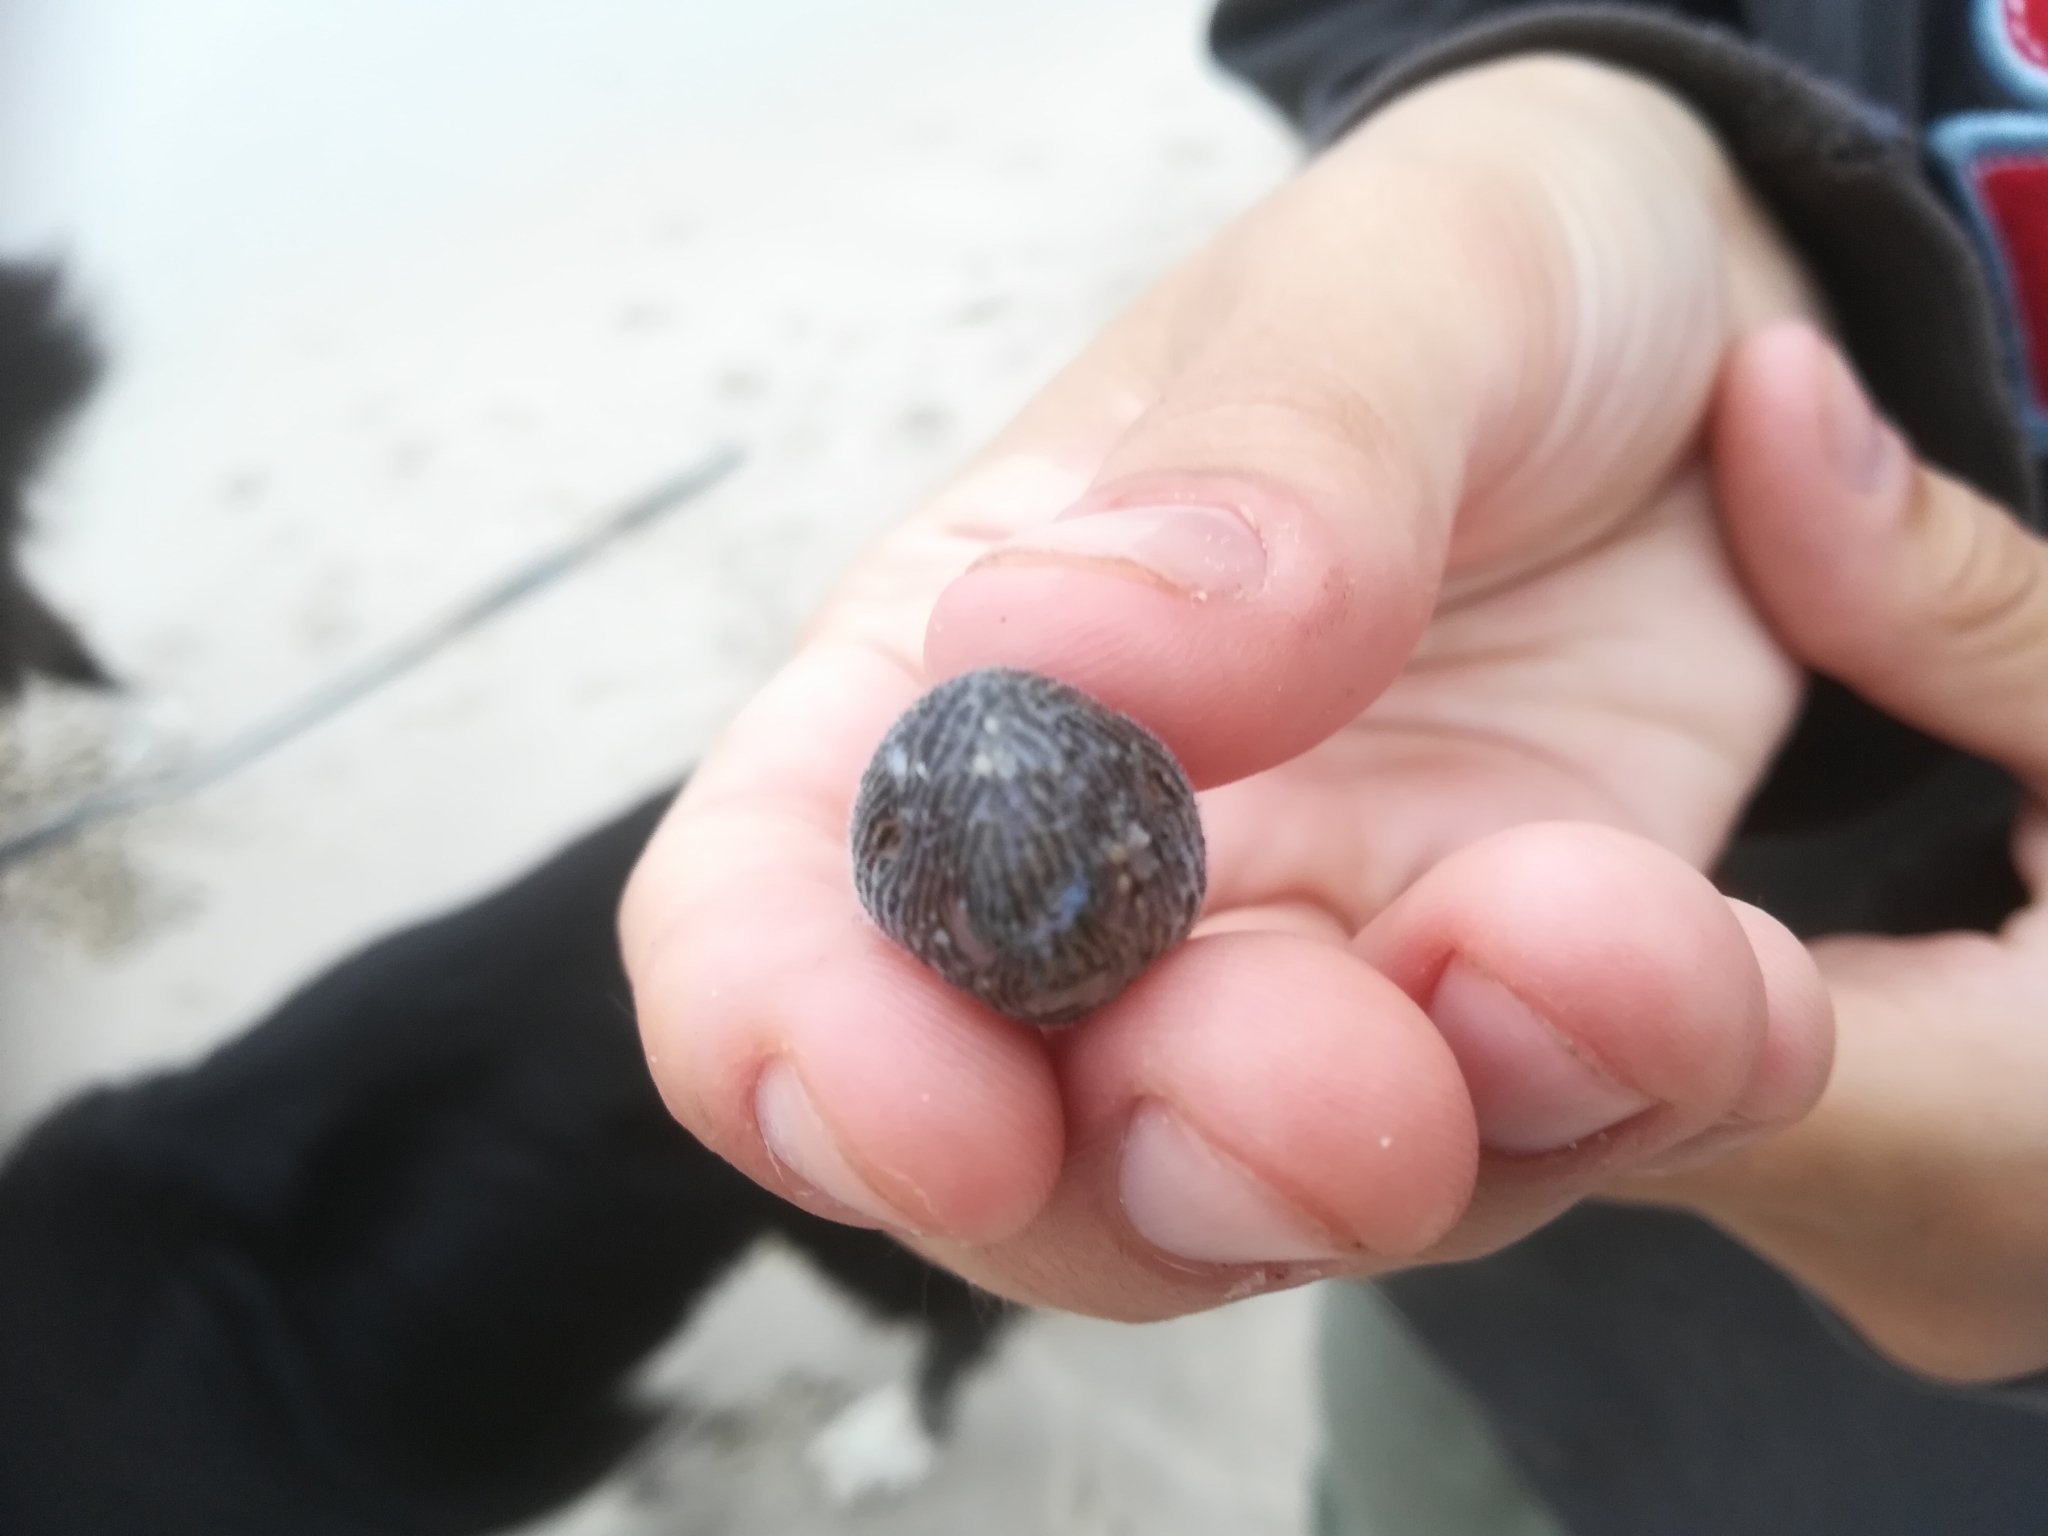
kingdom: Animalia
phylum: Chordata
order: Tetraodontiformes
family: Tetraodontidae
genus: Arothron
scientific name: Arothron inconditus
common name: Bellystriped blaasop
